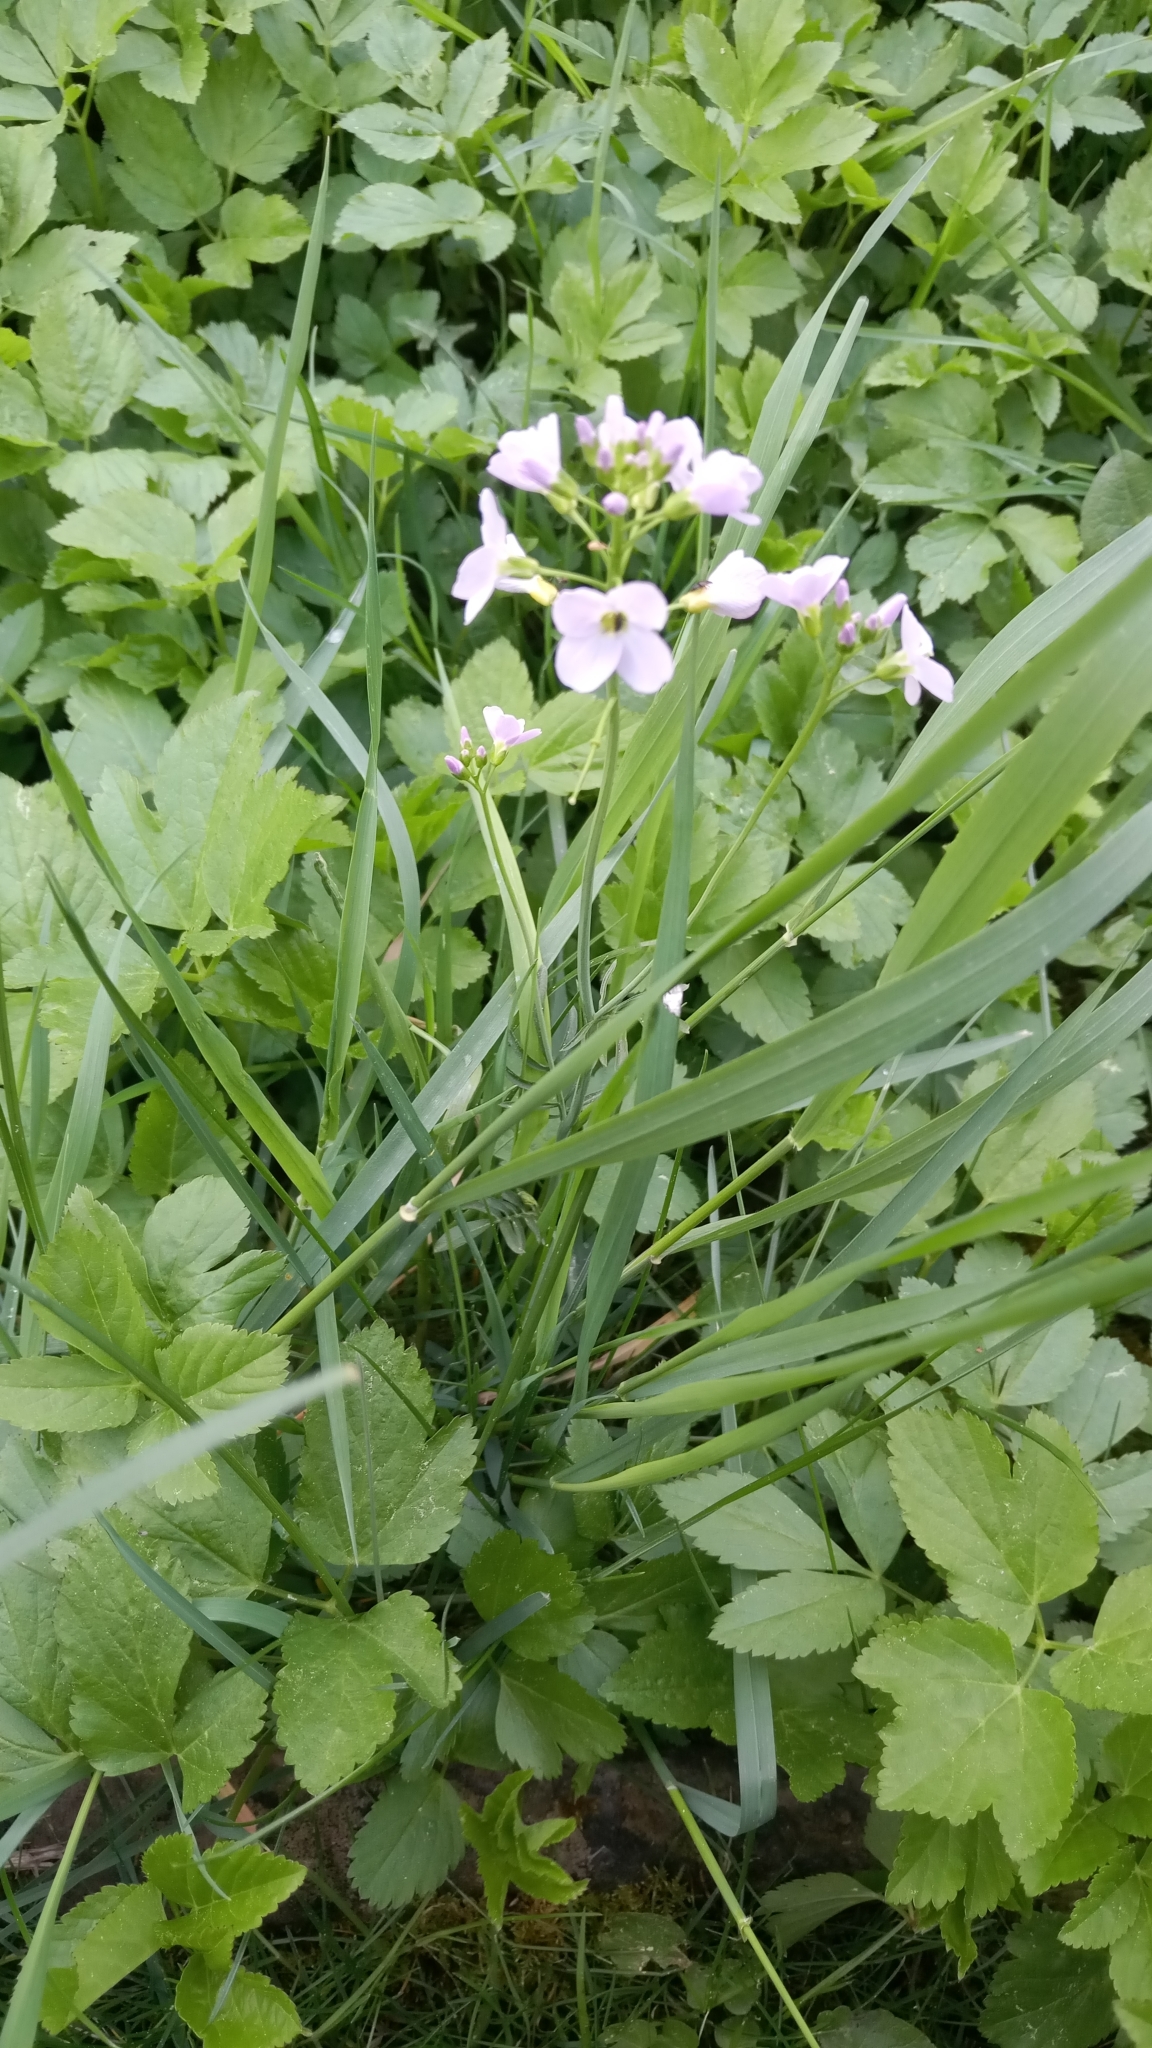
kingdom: Plantae
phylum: Tracheophyta
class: Magnoliopsida
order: Brassicales
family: Brassicaceae
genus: Cardamine
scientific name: Cardamine pratensis
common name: Cuckoo flower
